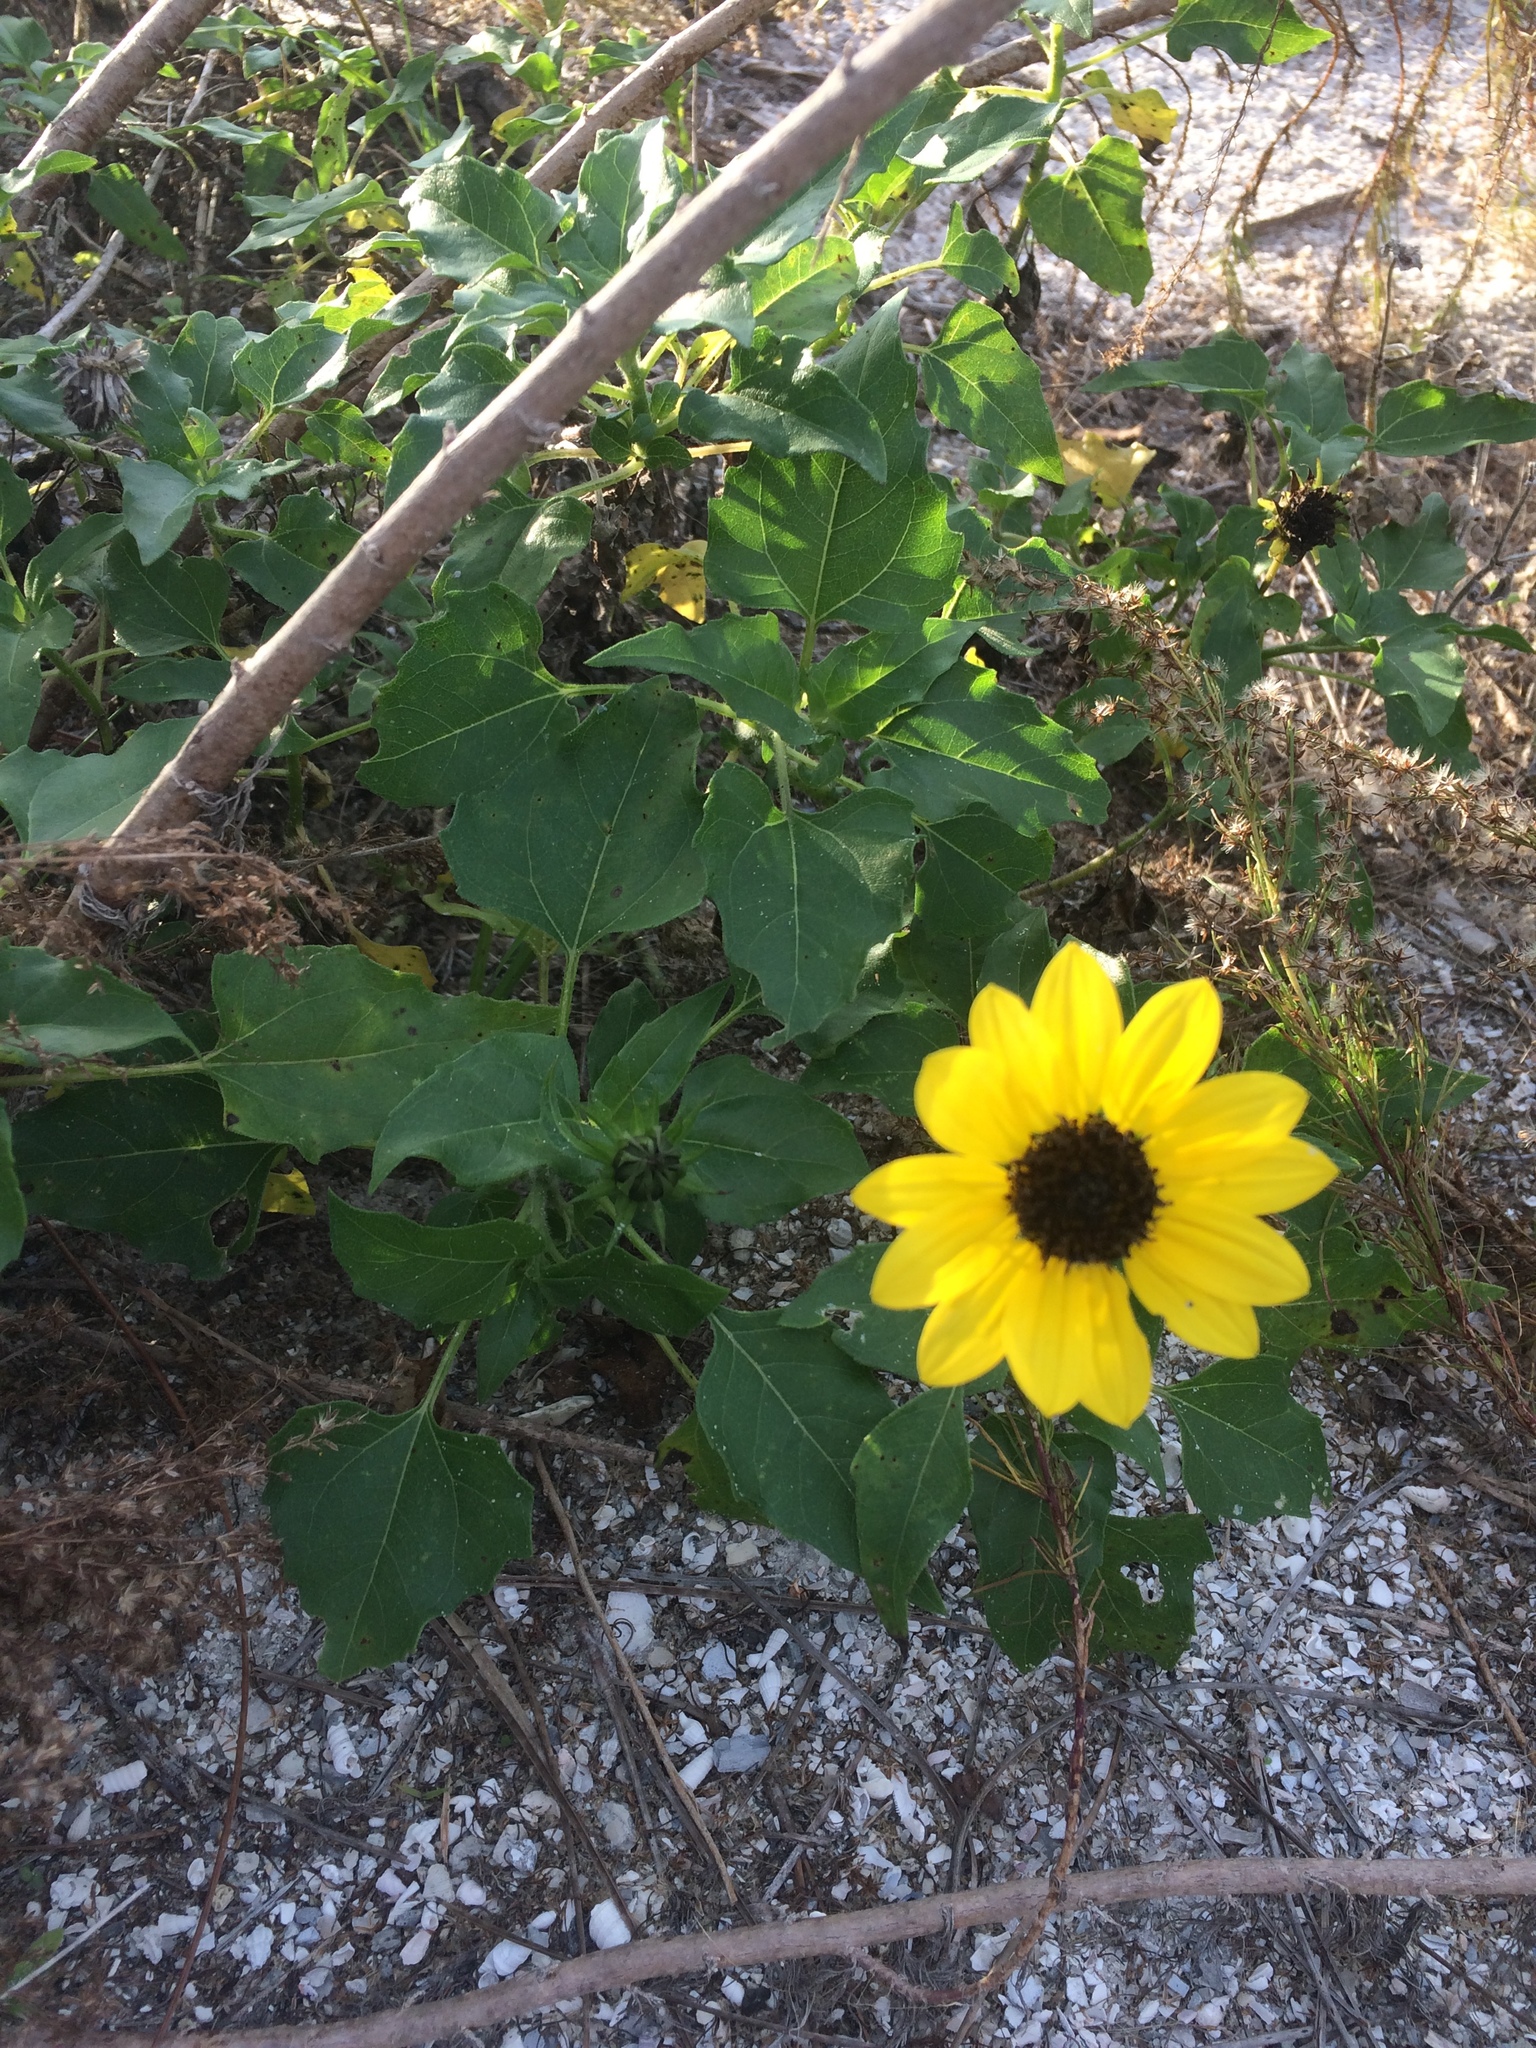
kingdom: Plantae
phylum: Tracheophyta
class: Magnoliopsida
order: Asterales
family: Asteraceae
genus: Helianthus
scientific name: Helianthus debilis
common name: Weak sunflower
